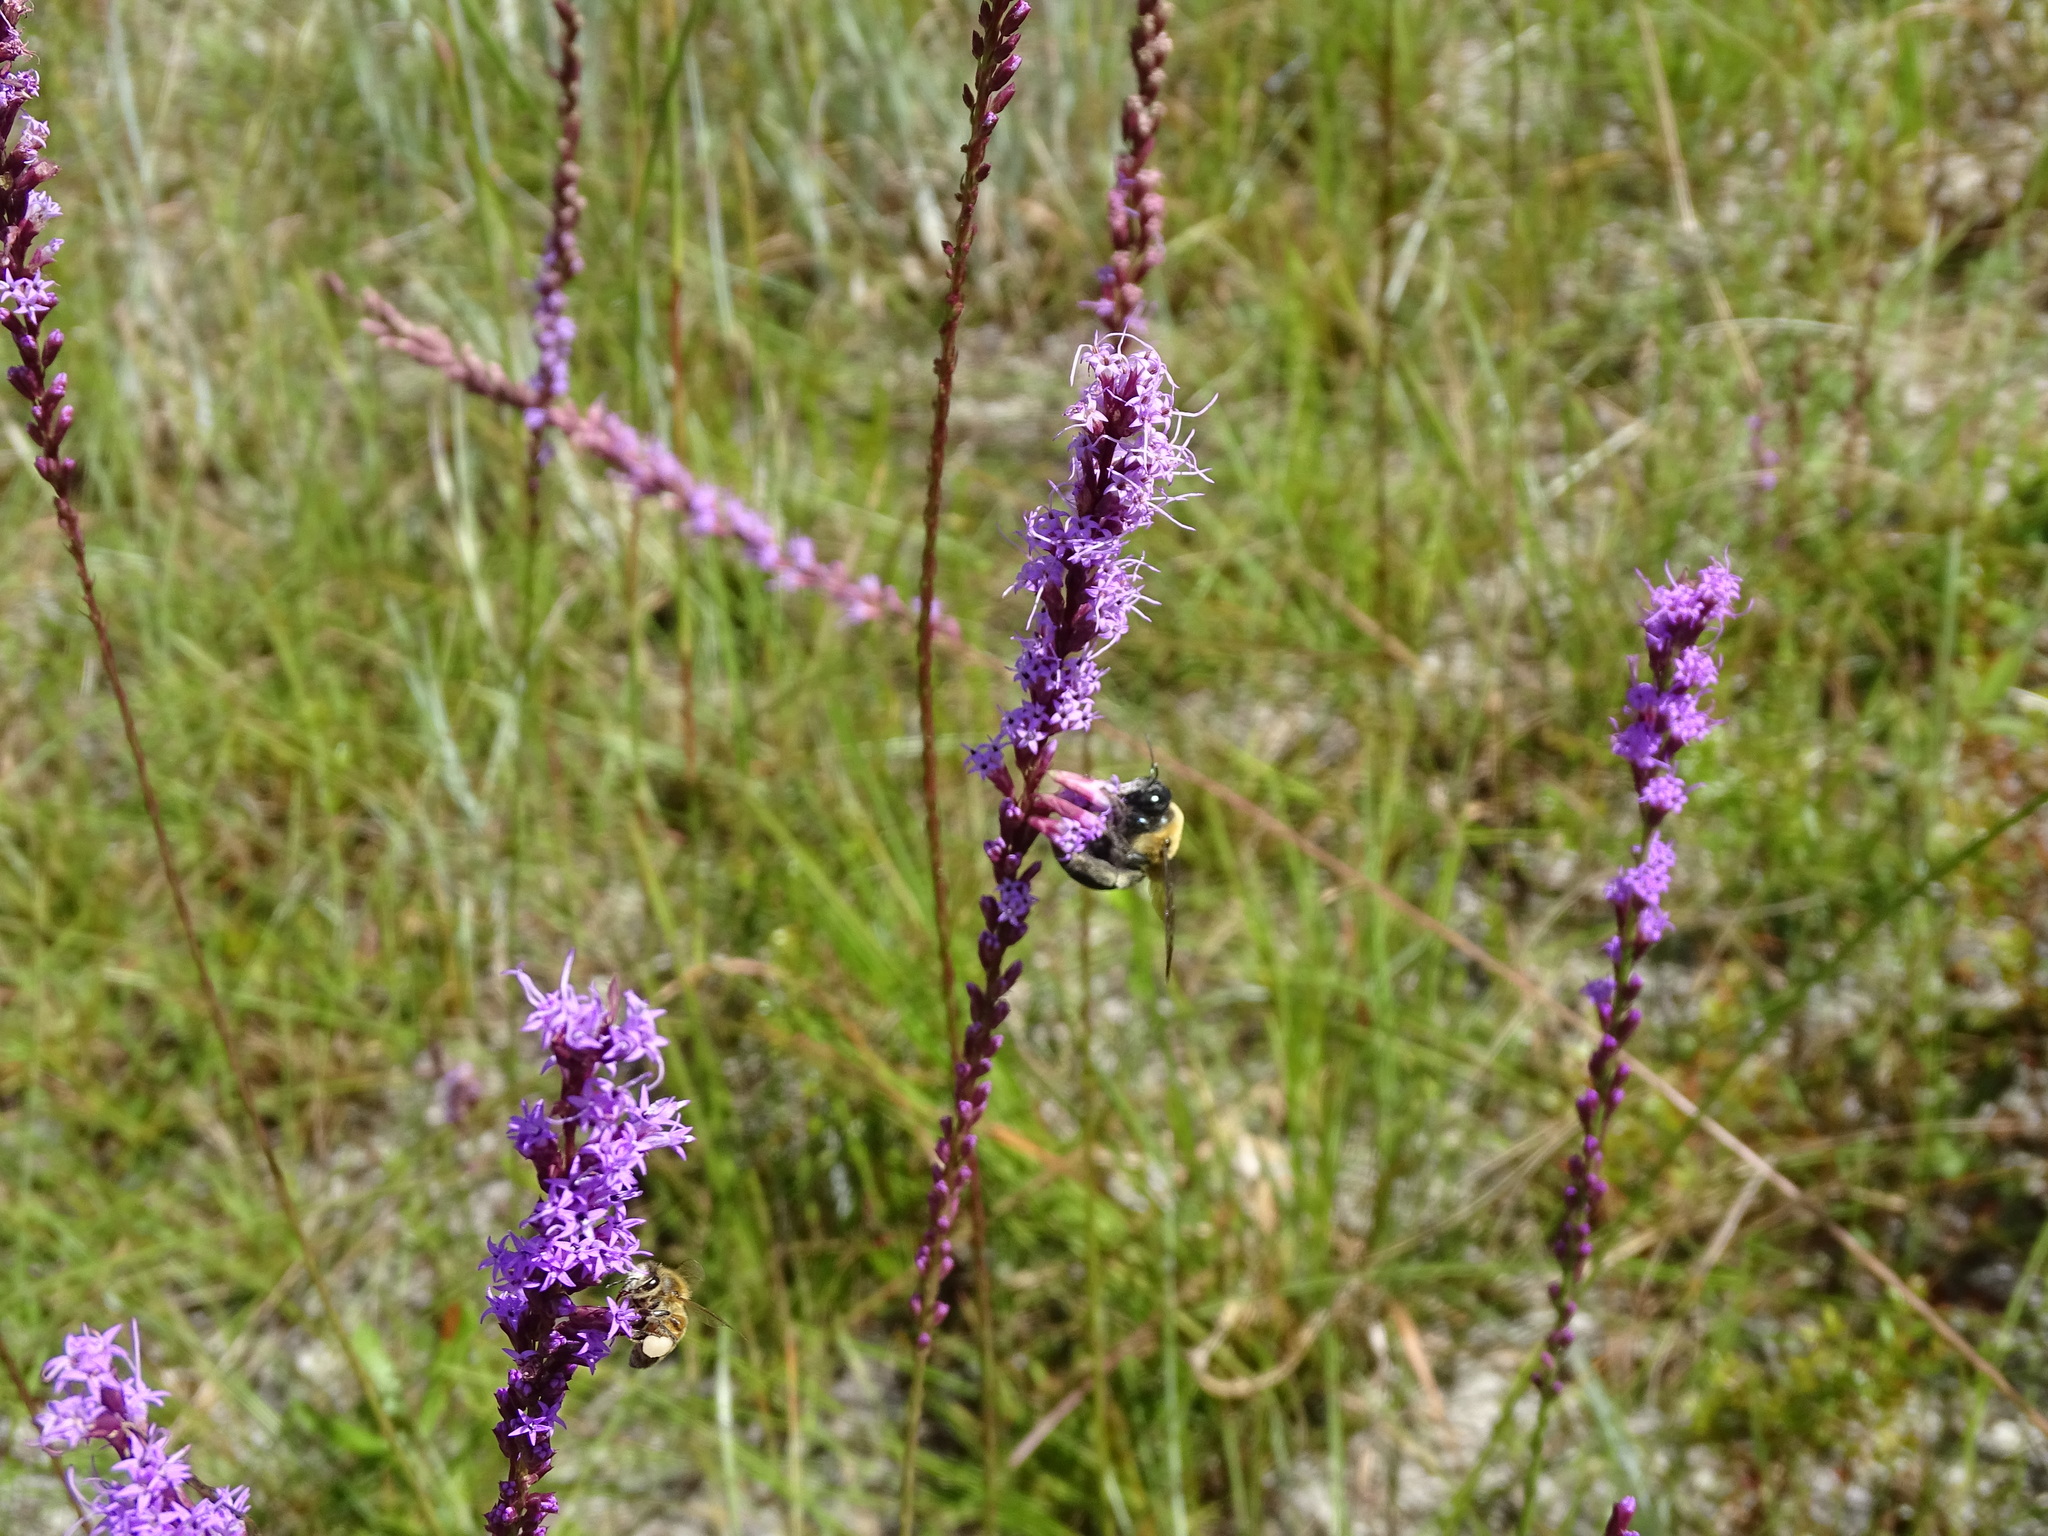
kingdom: Animalia
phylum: Arthropoda
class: Insecta
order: Hymenoptera
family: Apidae
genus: Xylocopa
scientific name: Xylocopa virginica
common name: Carpenter bee
